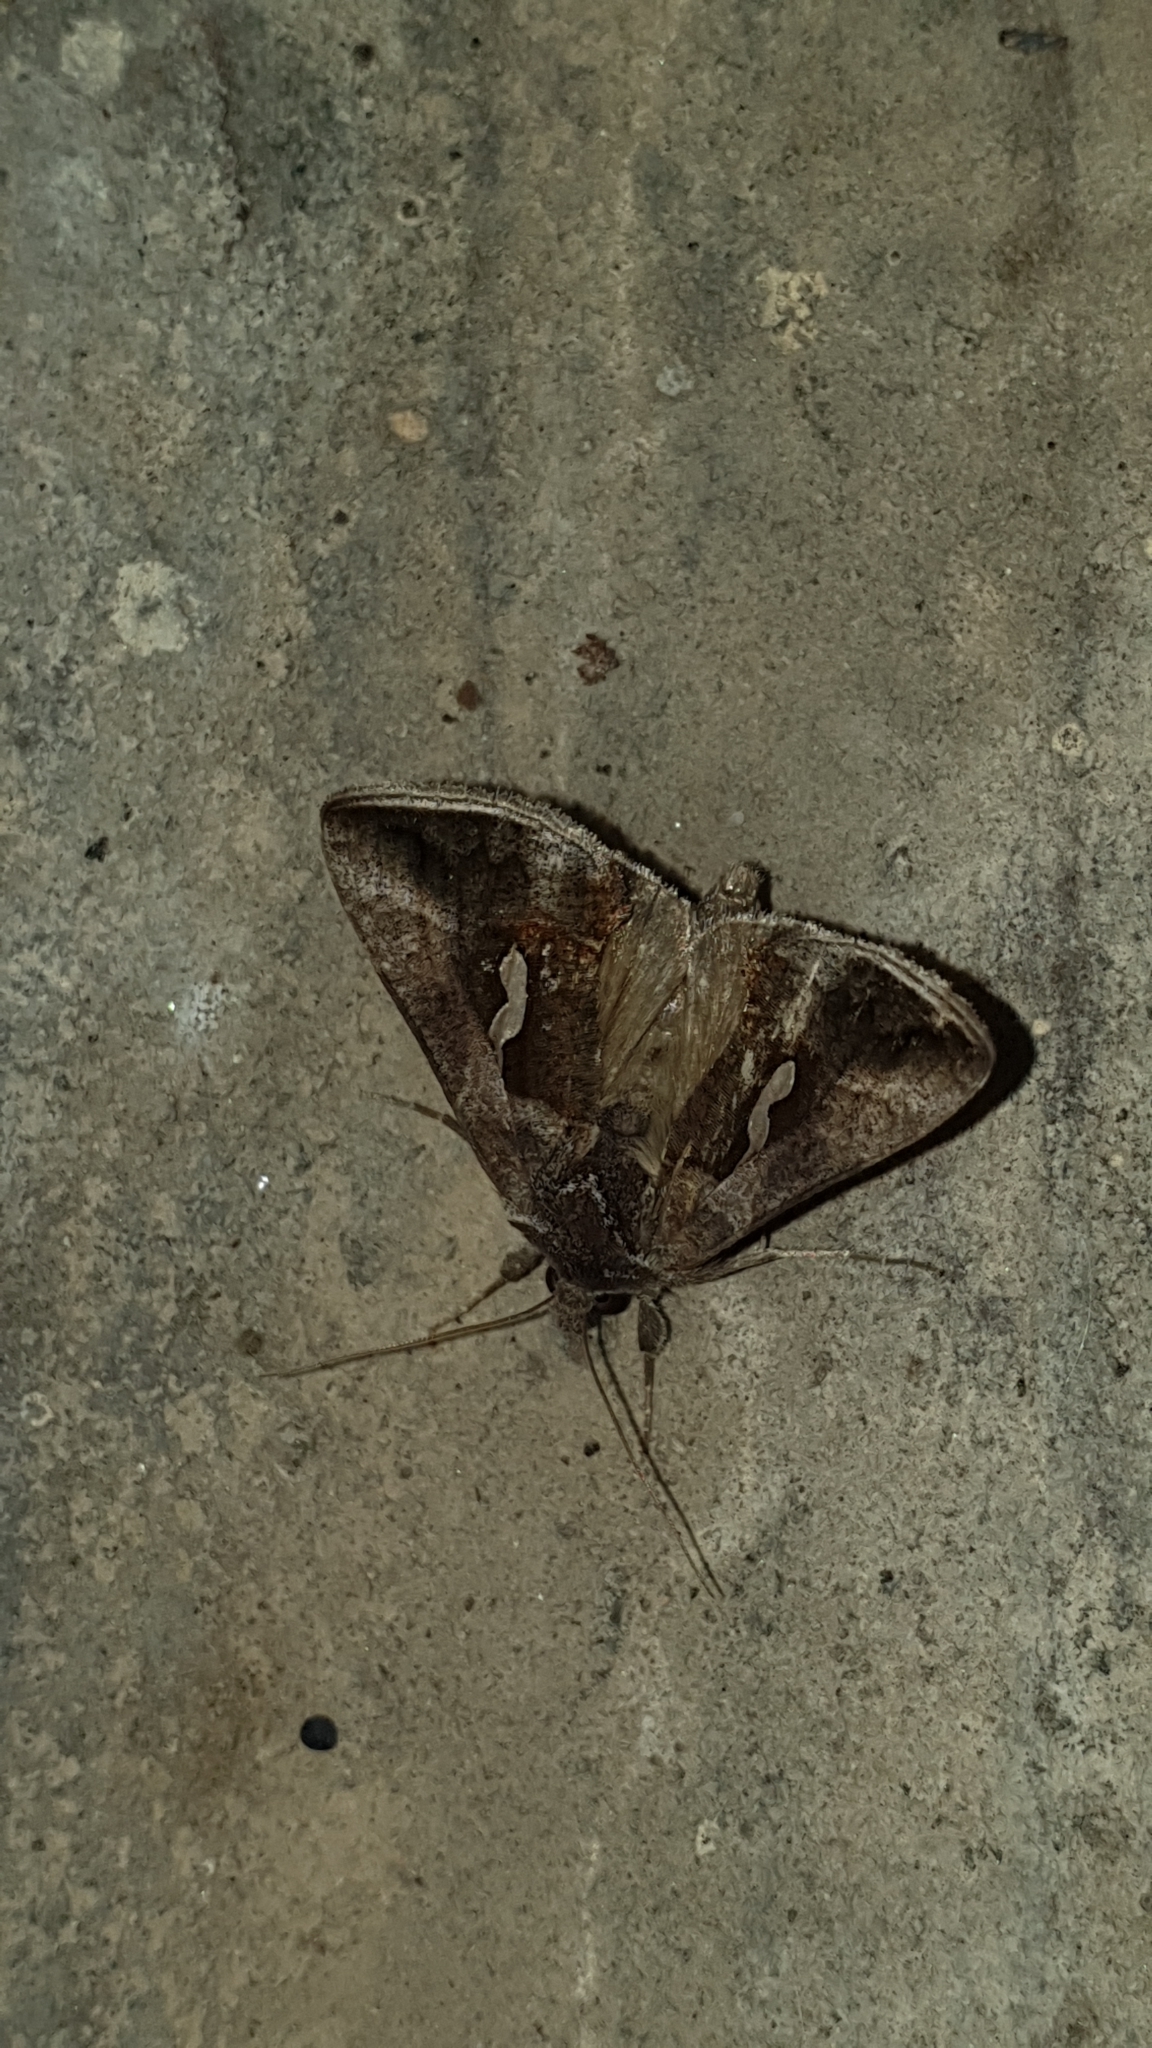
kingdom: Animalia
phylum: Arthropoda
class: Insecta
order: Lepidoptera
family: Noctuidae
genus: Macdunnoughia
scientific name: Macdunnoughia confusa
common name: Dewick's plusia
